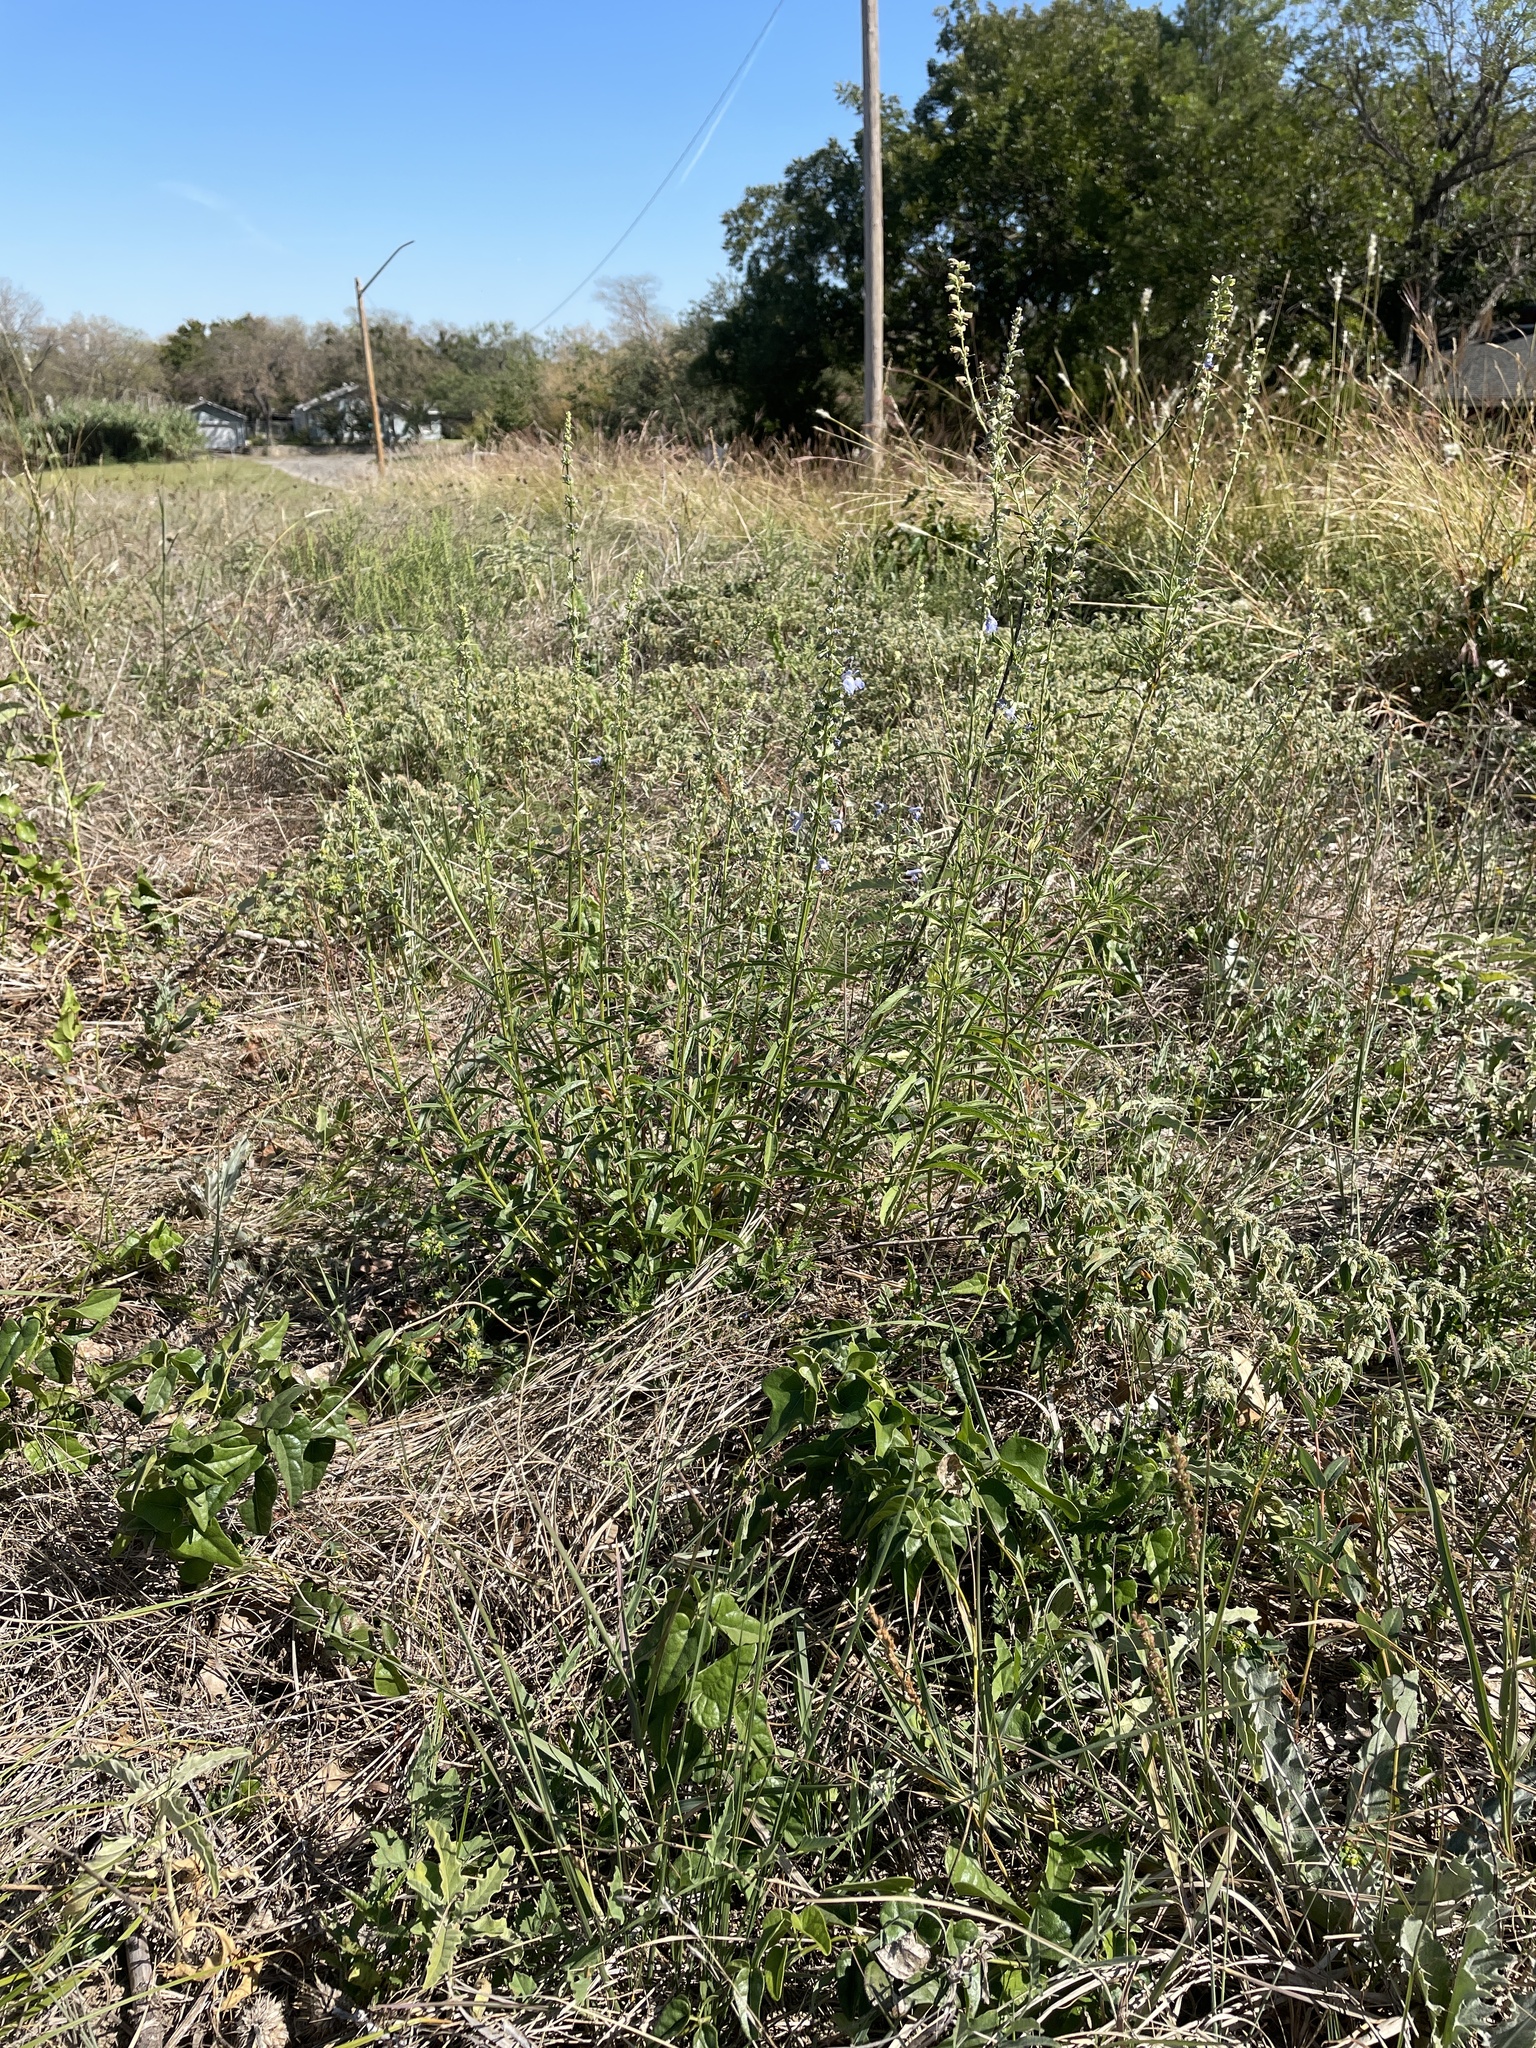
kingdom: Plantae
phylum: Tracheophyta
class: Magnoliopsida
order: Lamiales
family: Lamiaceae
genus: Salvia
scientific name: Salvia azurea
